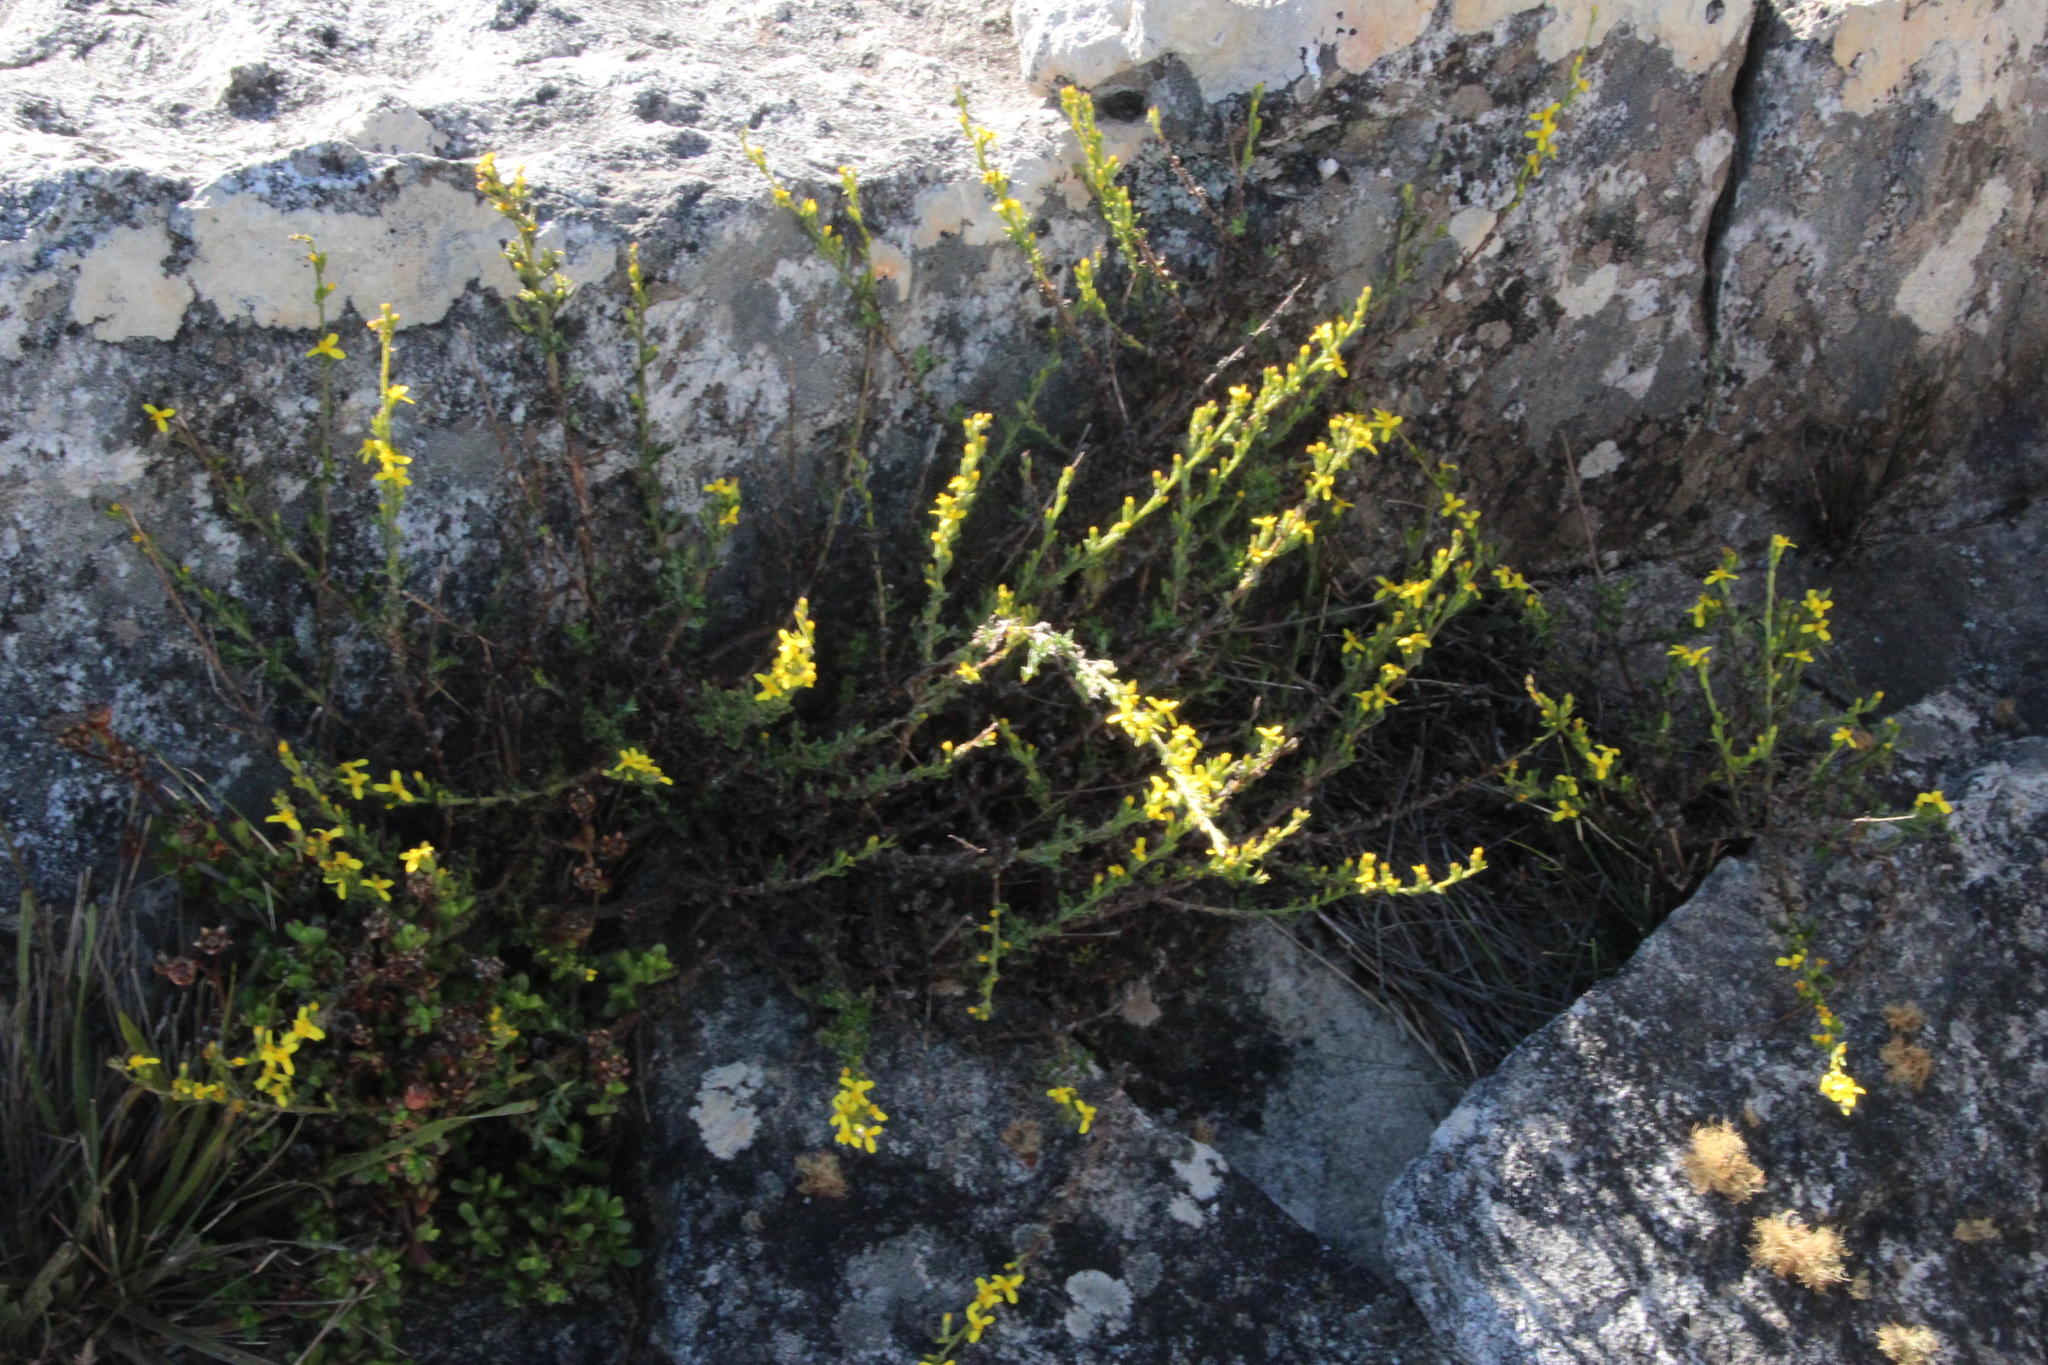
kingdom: Plantae
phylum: Tracheophyta
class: Magnoliopsida
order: Asterales
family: Asteraceae
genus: Senecio
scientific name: Senecio pubigerus
